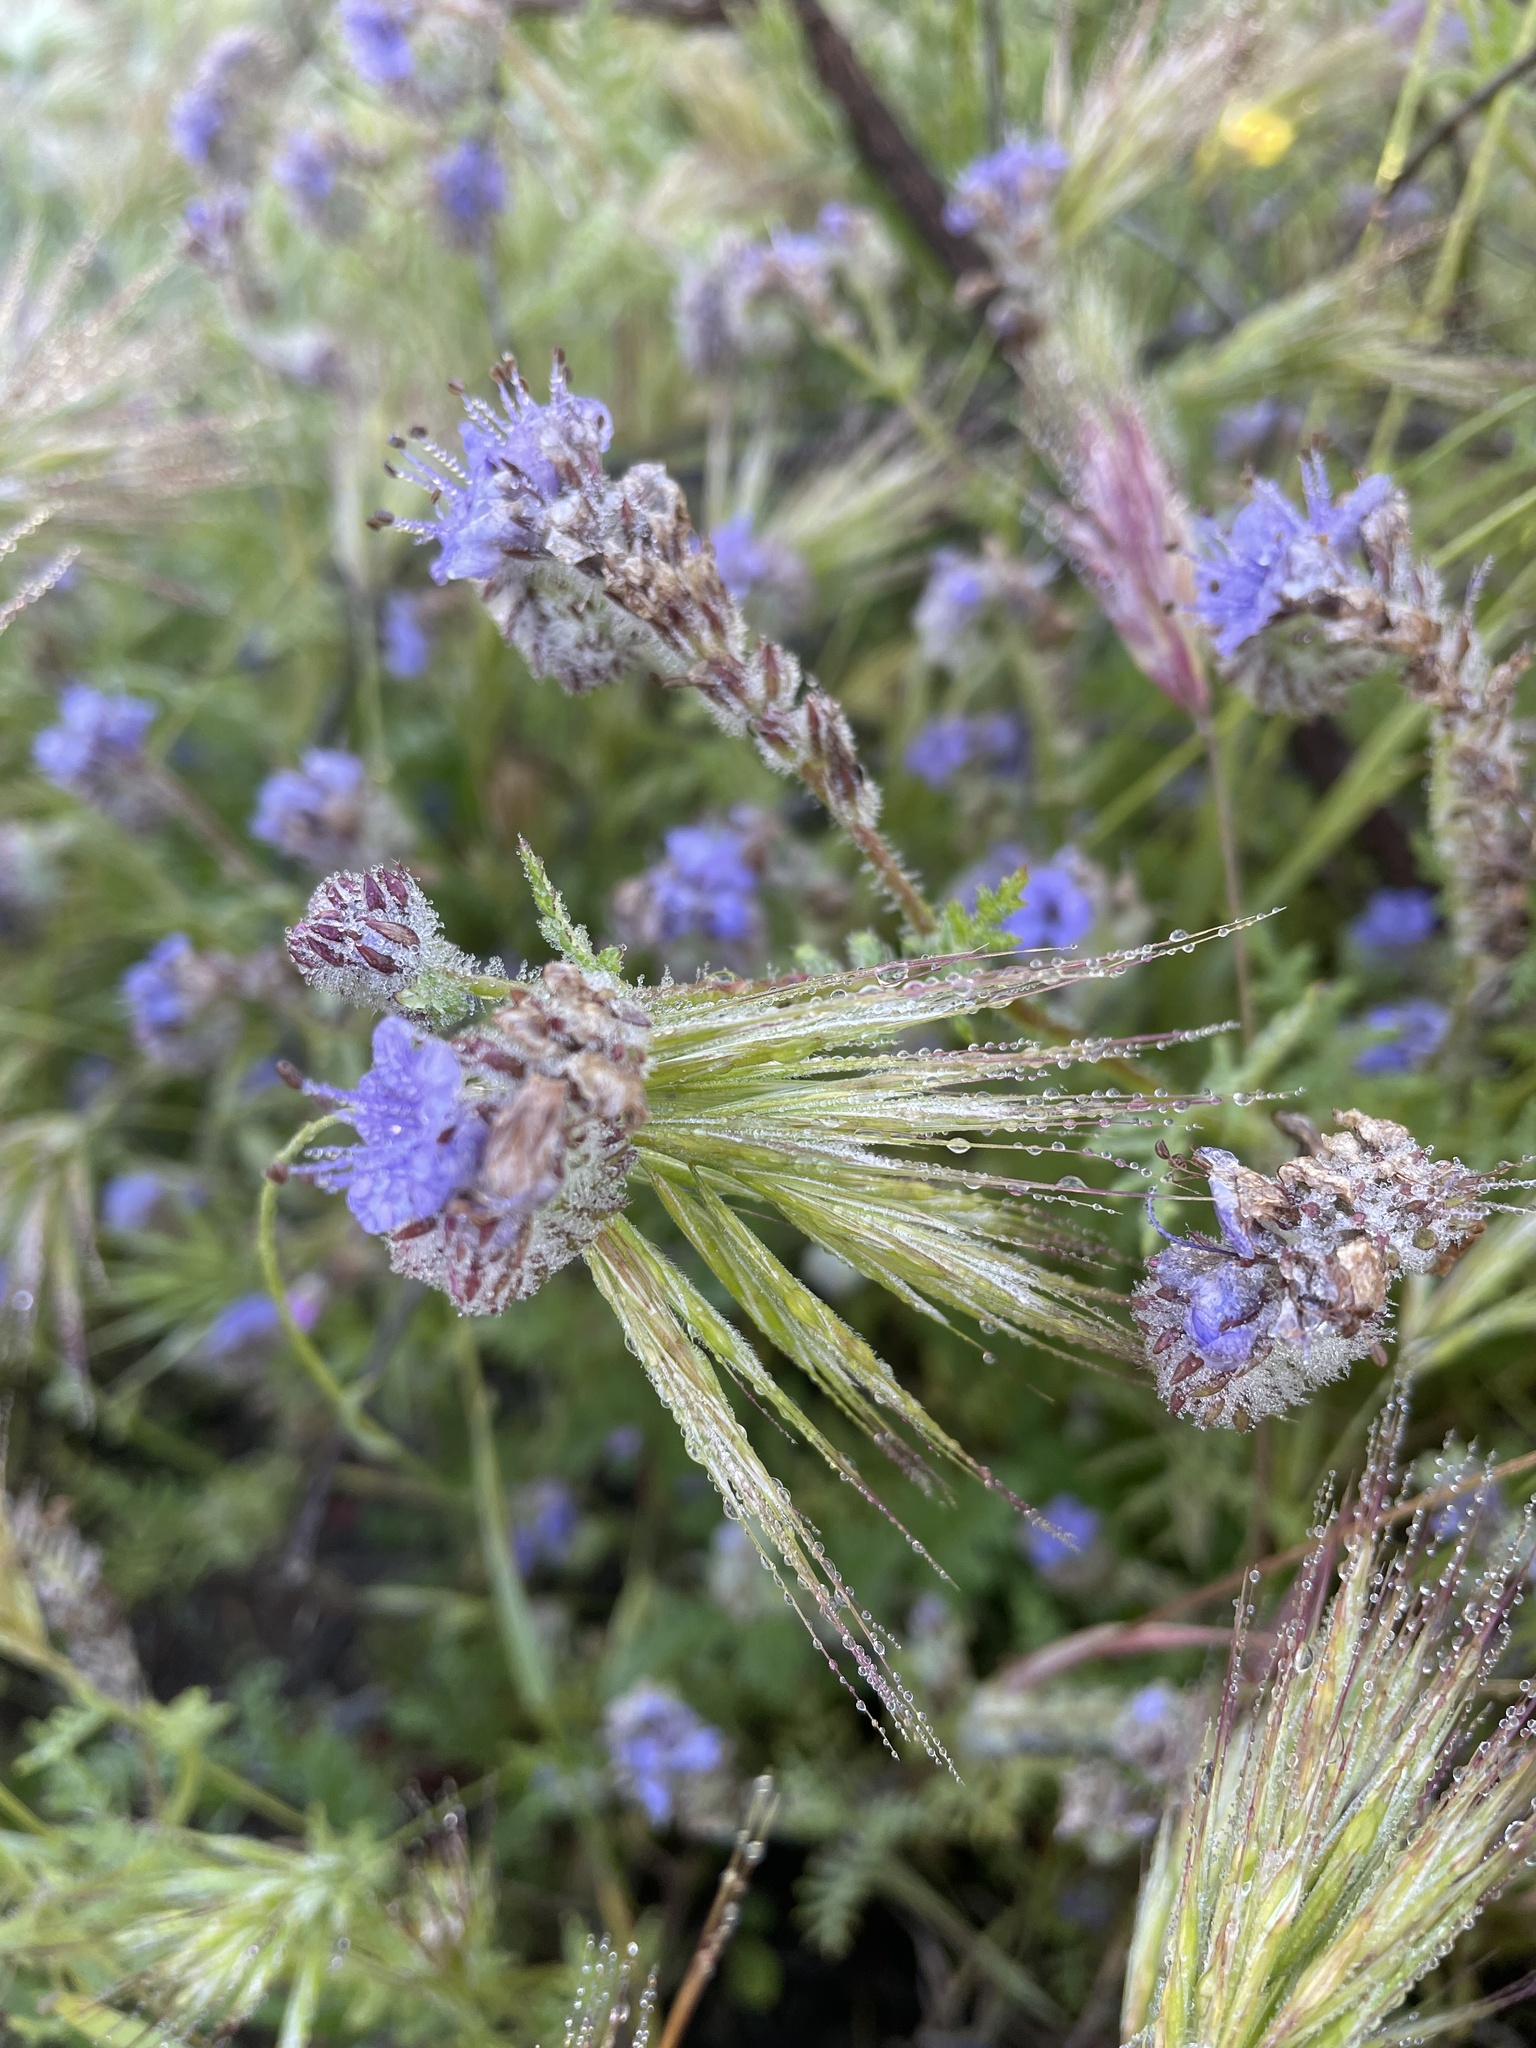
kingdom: Plantae
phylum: Tracheophyta
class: Magnoliopsida
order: Boraginales
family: Hydrophyllaceae
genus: Phacelia
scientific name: Phacelia distans
